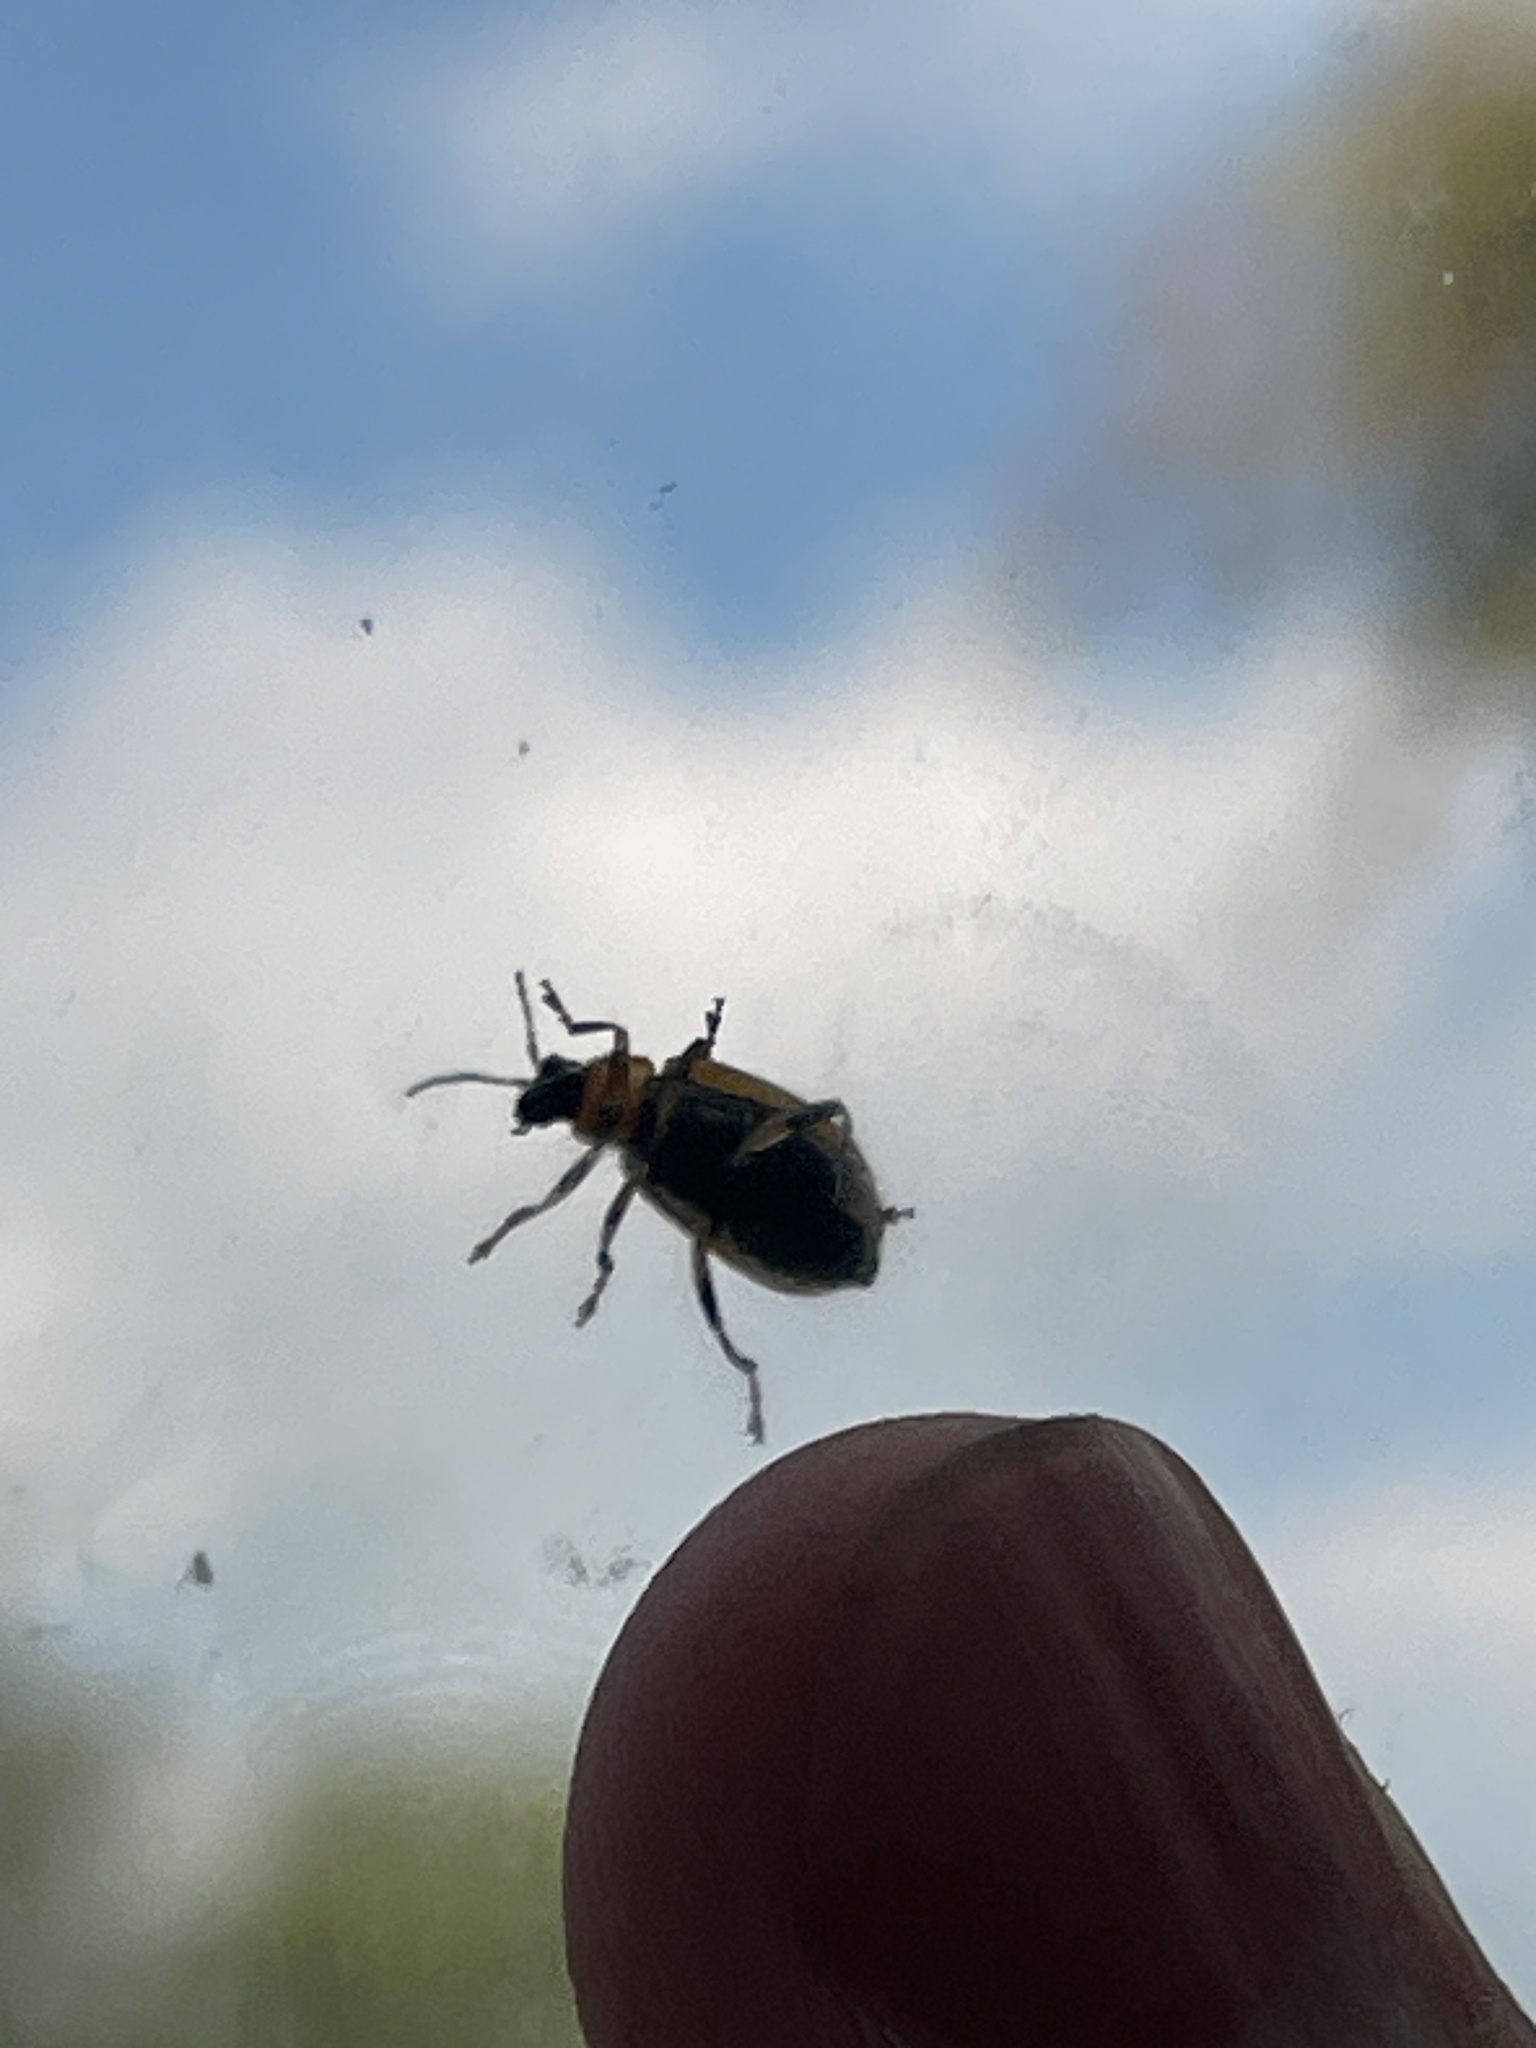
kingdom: Animalia
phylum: Arthropoda
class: Insecta
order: Coleoptera
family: Chrysomelidae
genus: Cerotoma
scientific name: Cerotoma trifurcata
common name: Bean leaf beetle
